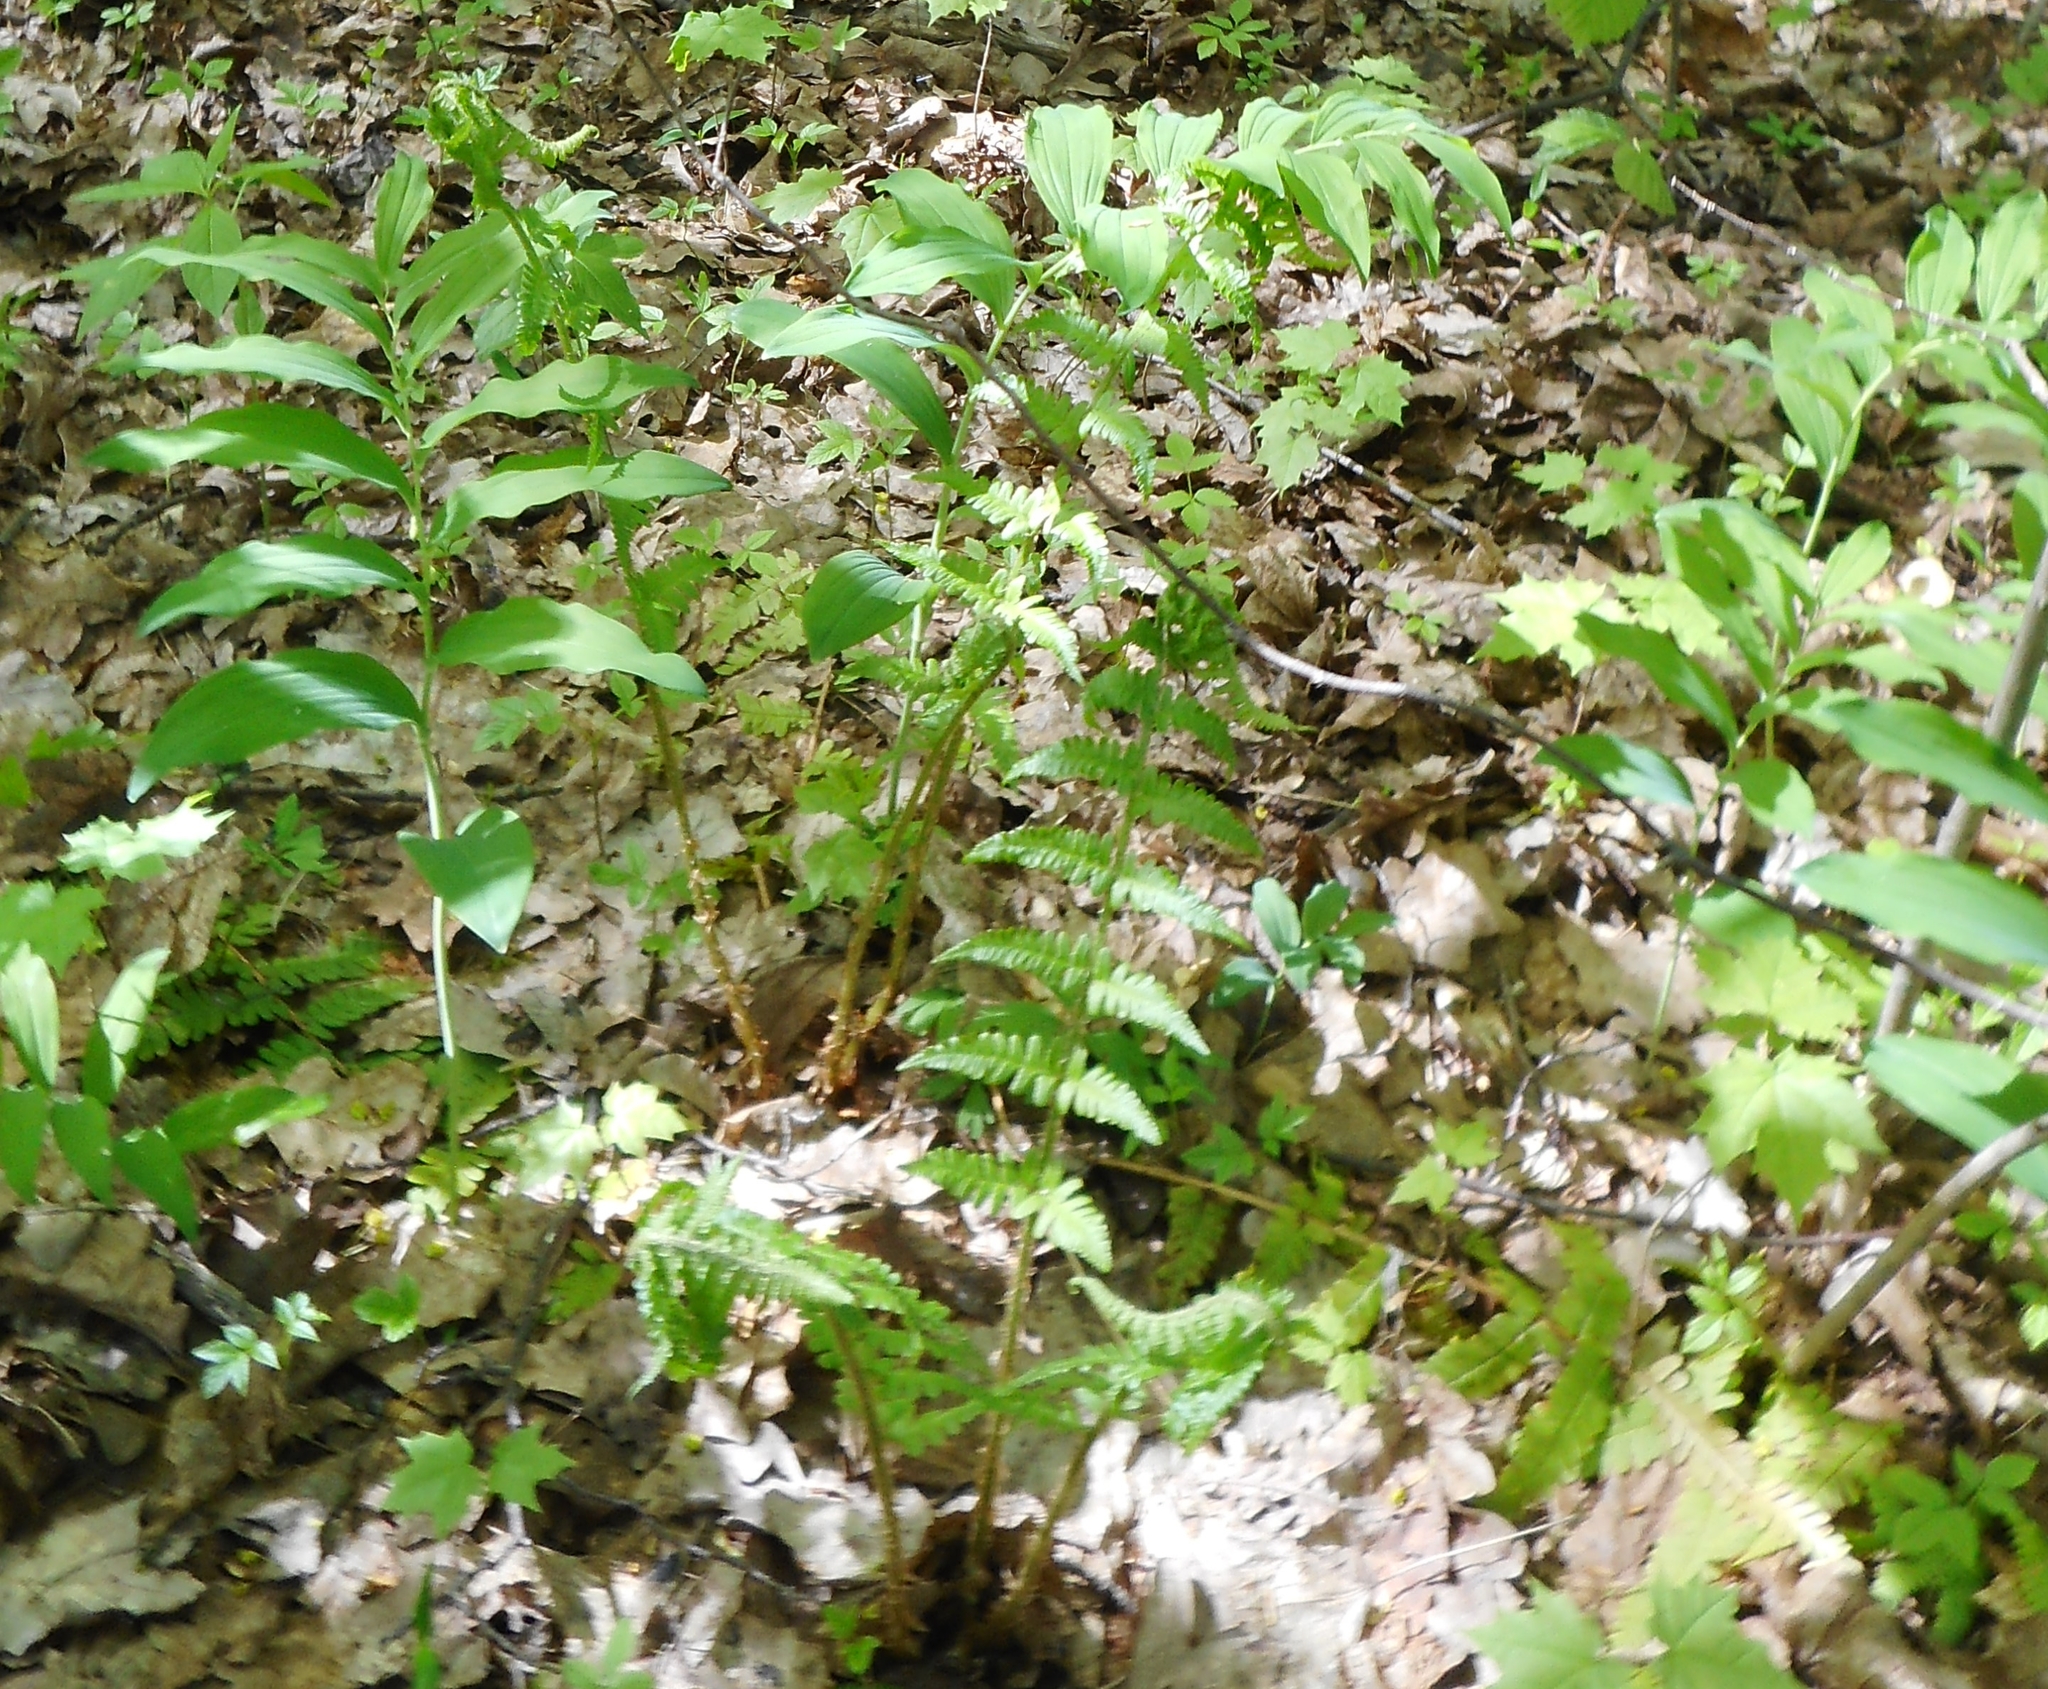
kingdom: Plantae
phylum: Tracheophyta
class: Liliopsida
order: Asparagales
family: Asparagaceae
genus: Polygonatum
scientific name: Polygonatum odoratum
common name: Angular solomon's-seal
